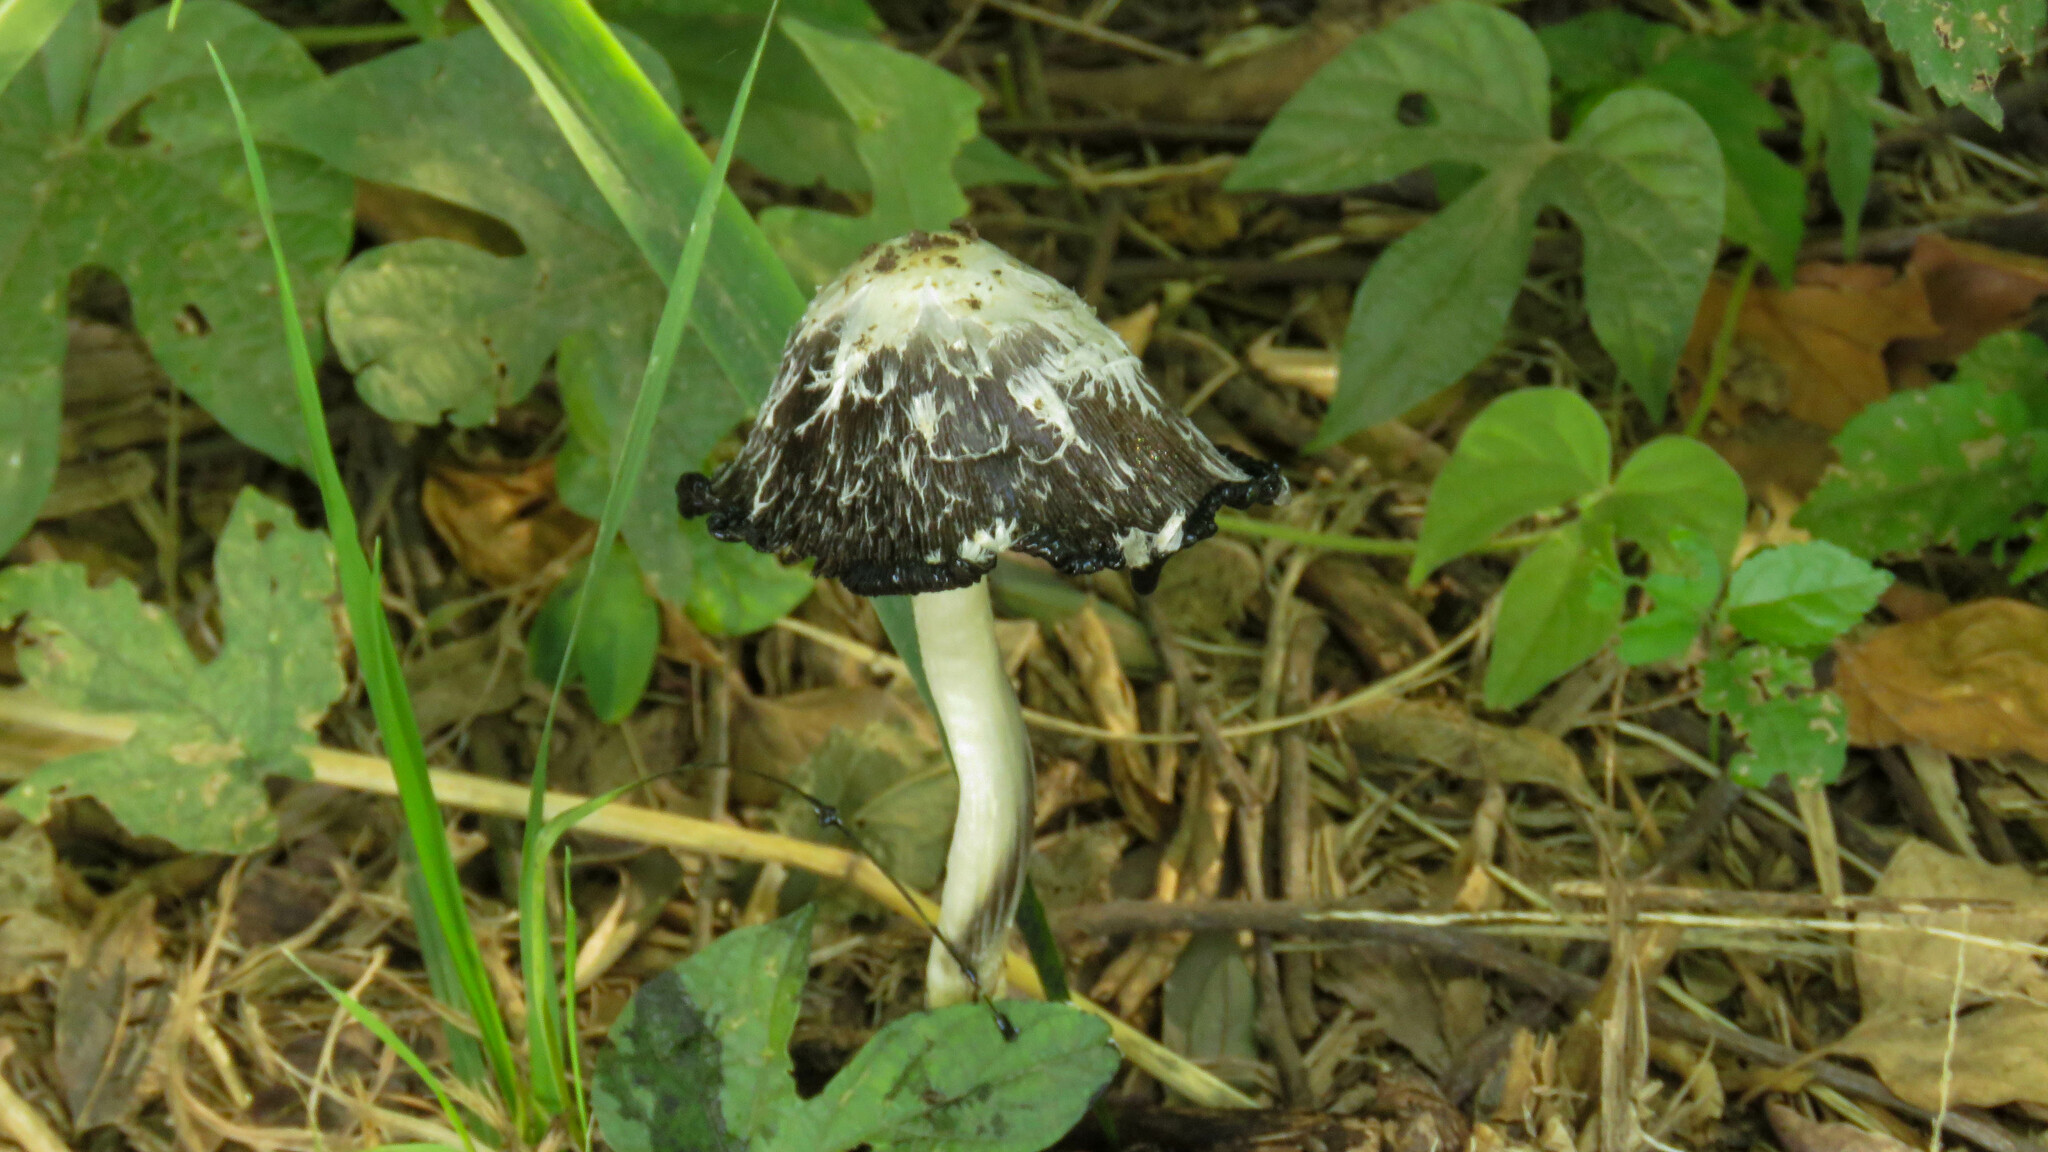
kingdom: Fungi
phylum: Basidiomycota
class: Agaricomycetes
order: Agaricales
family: Agaricaceae
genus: Coprinus
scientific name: Coprinus comatus
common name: Lawyer's wig
